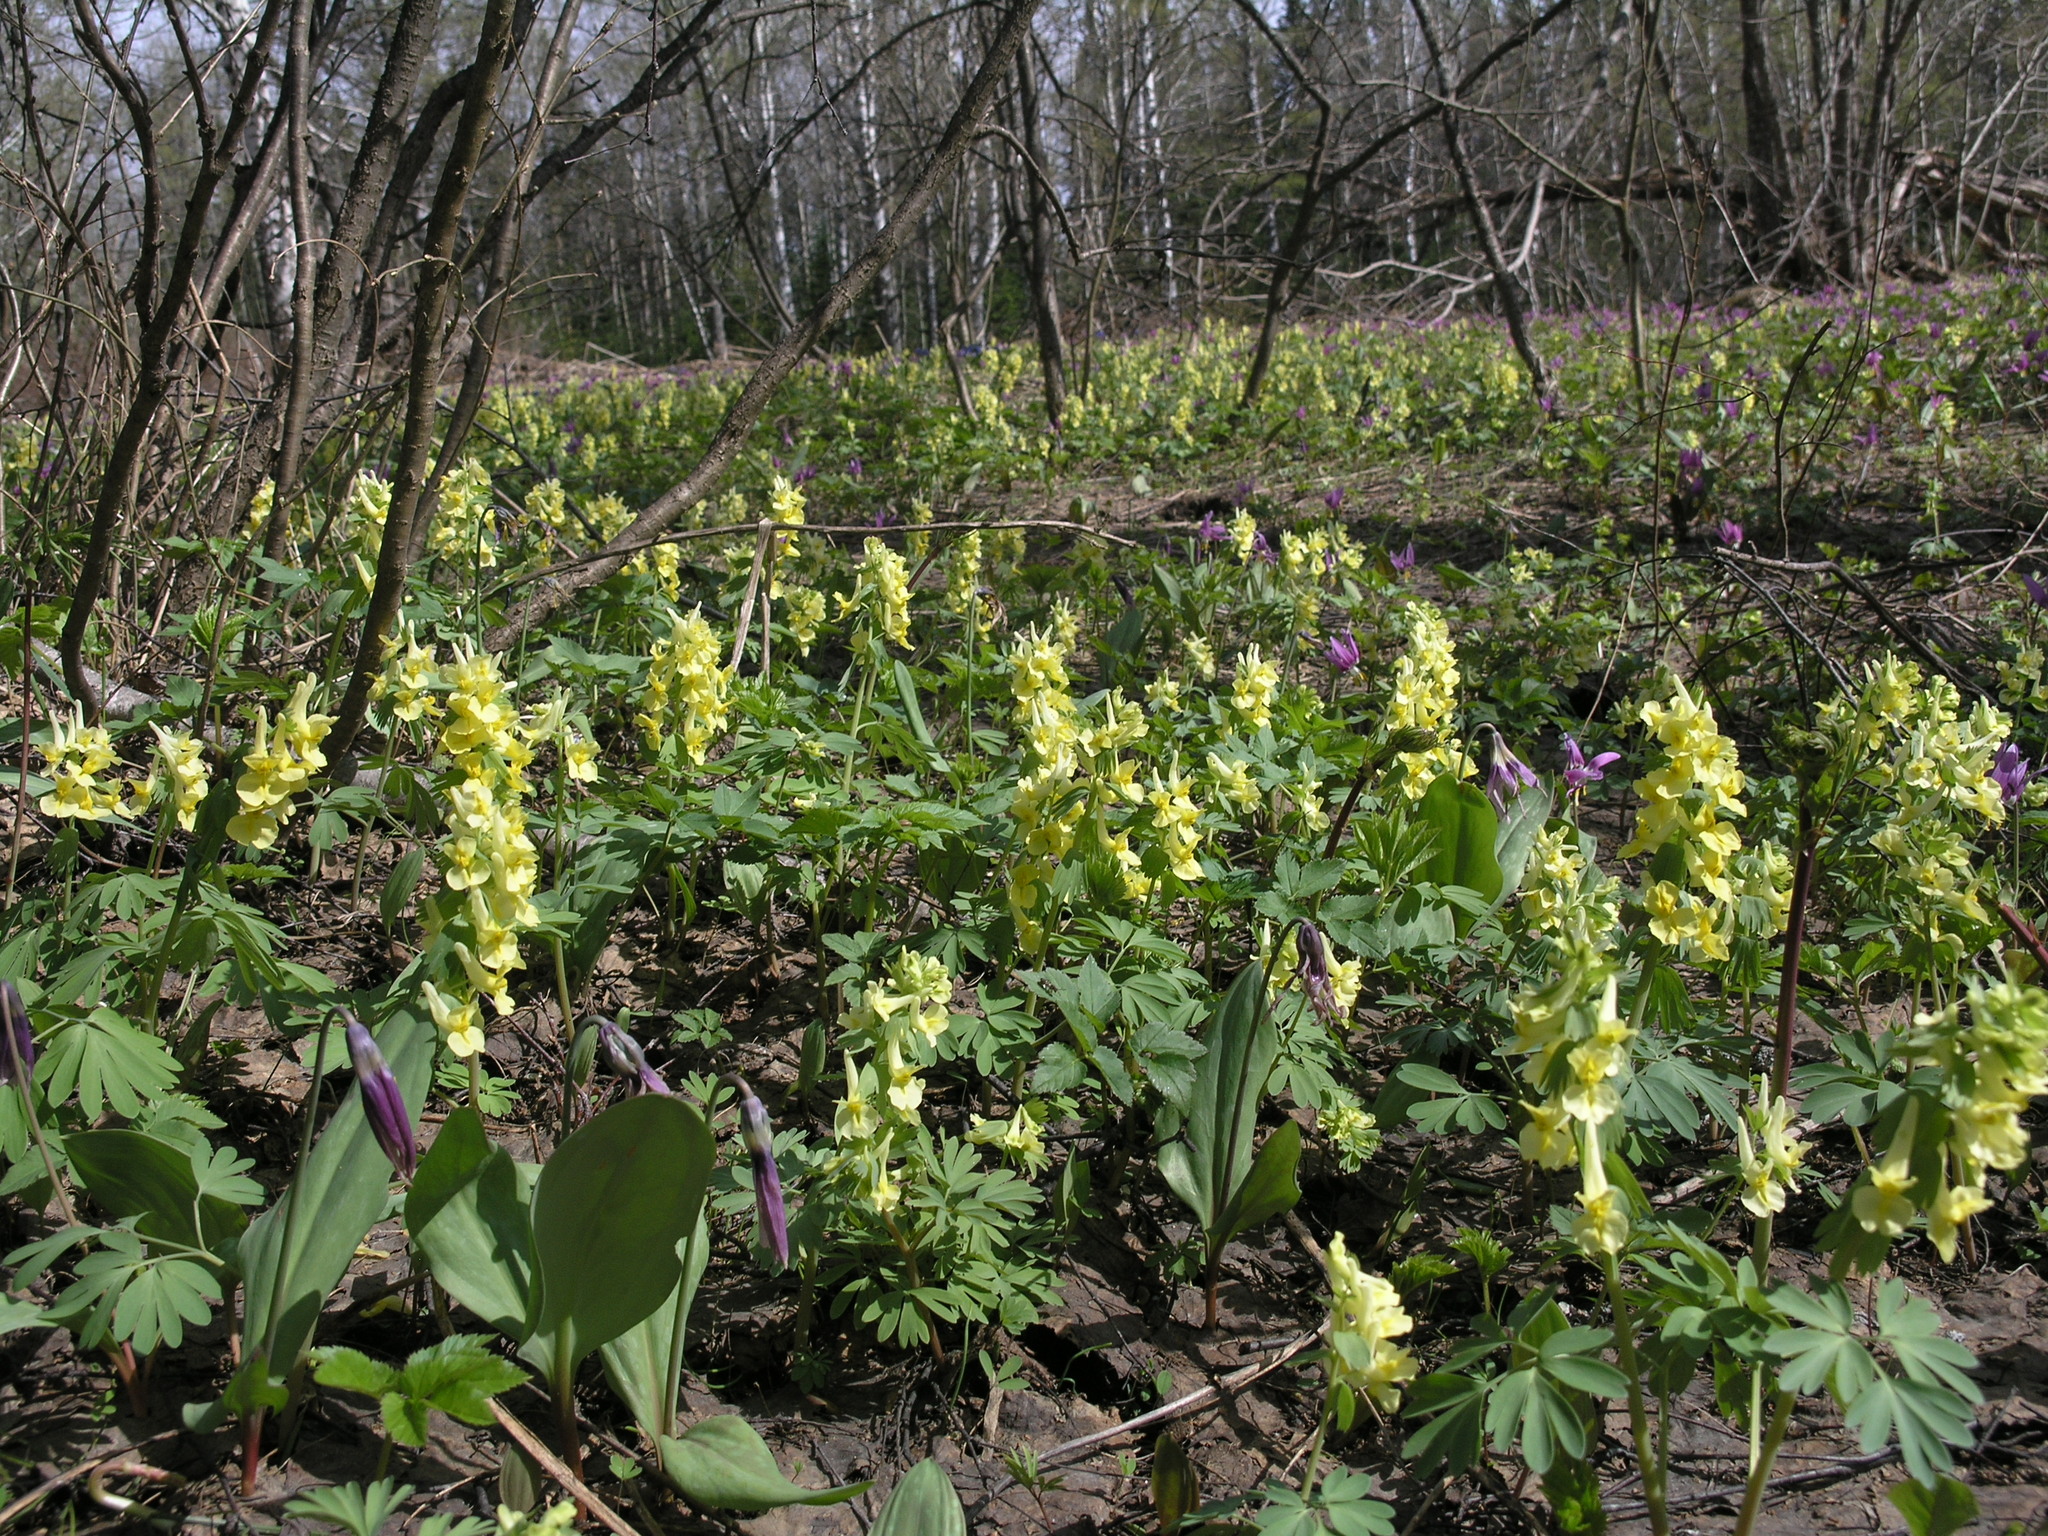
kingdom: Plantae
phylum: Tracheophyta
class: Magnoliopsida
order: Ranunculales
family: Papaveraceae
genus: Corydalis
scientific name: Corydalis bracteata
